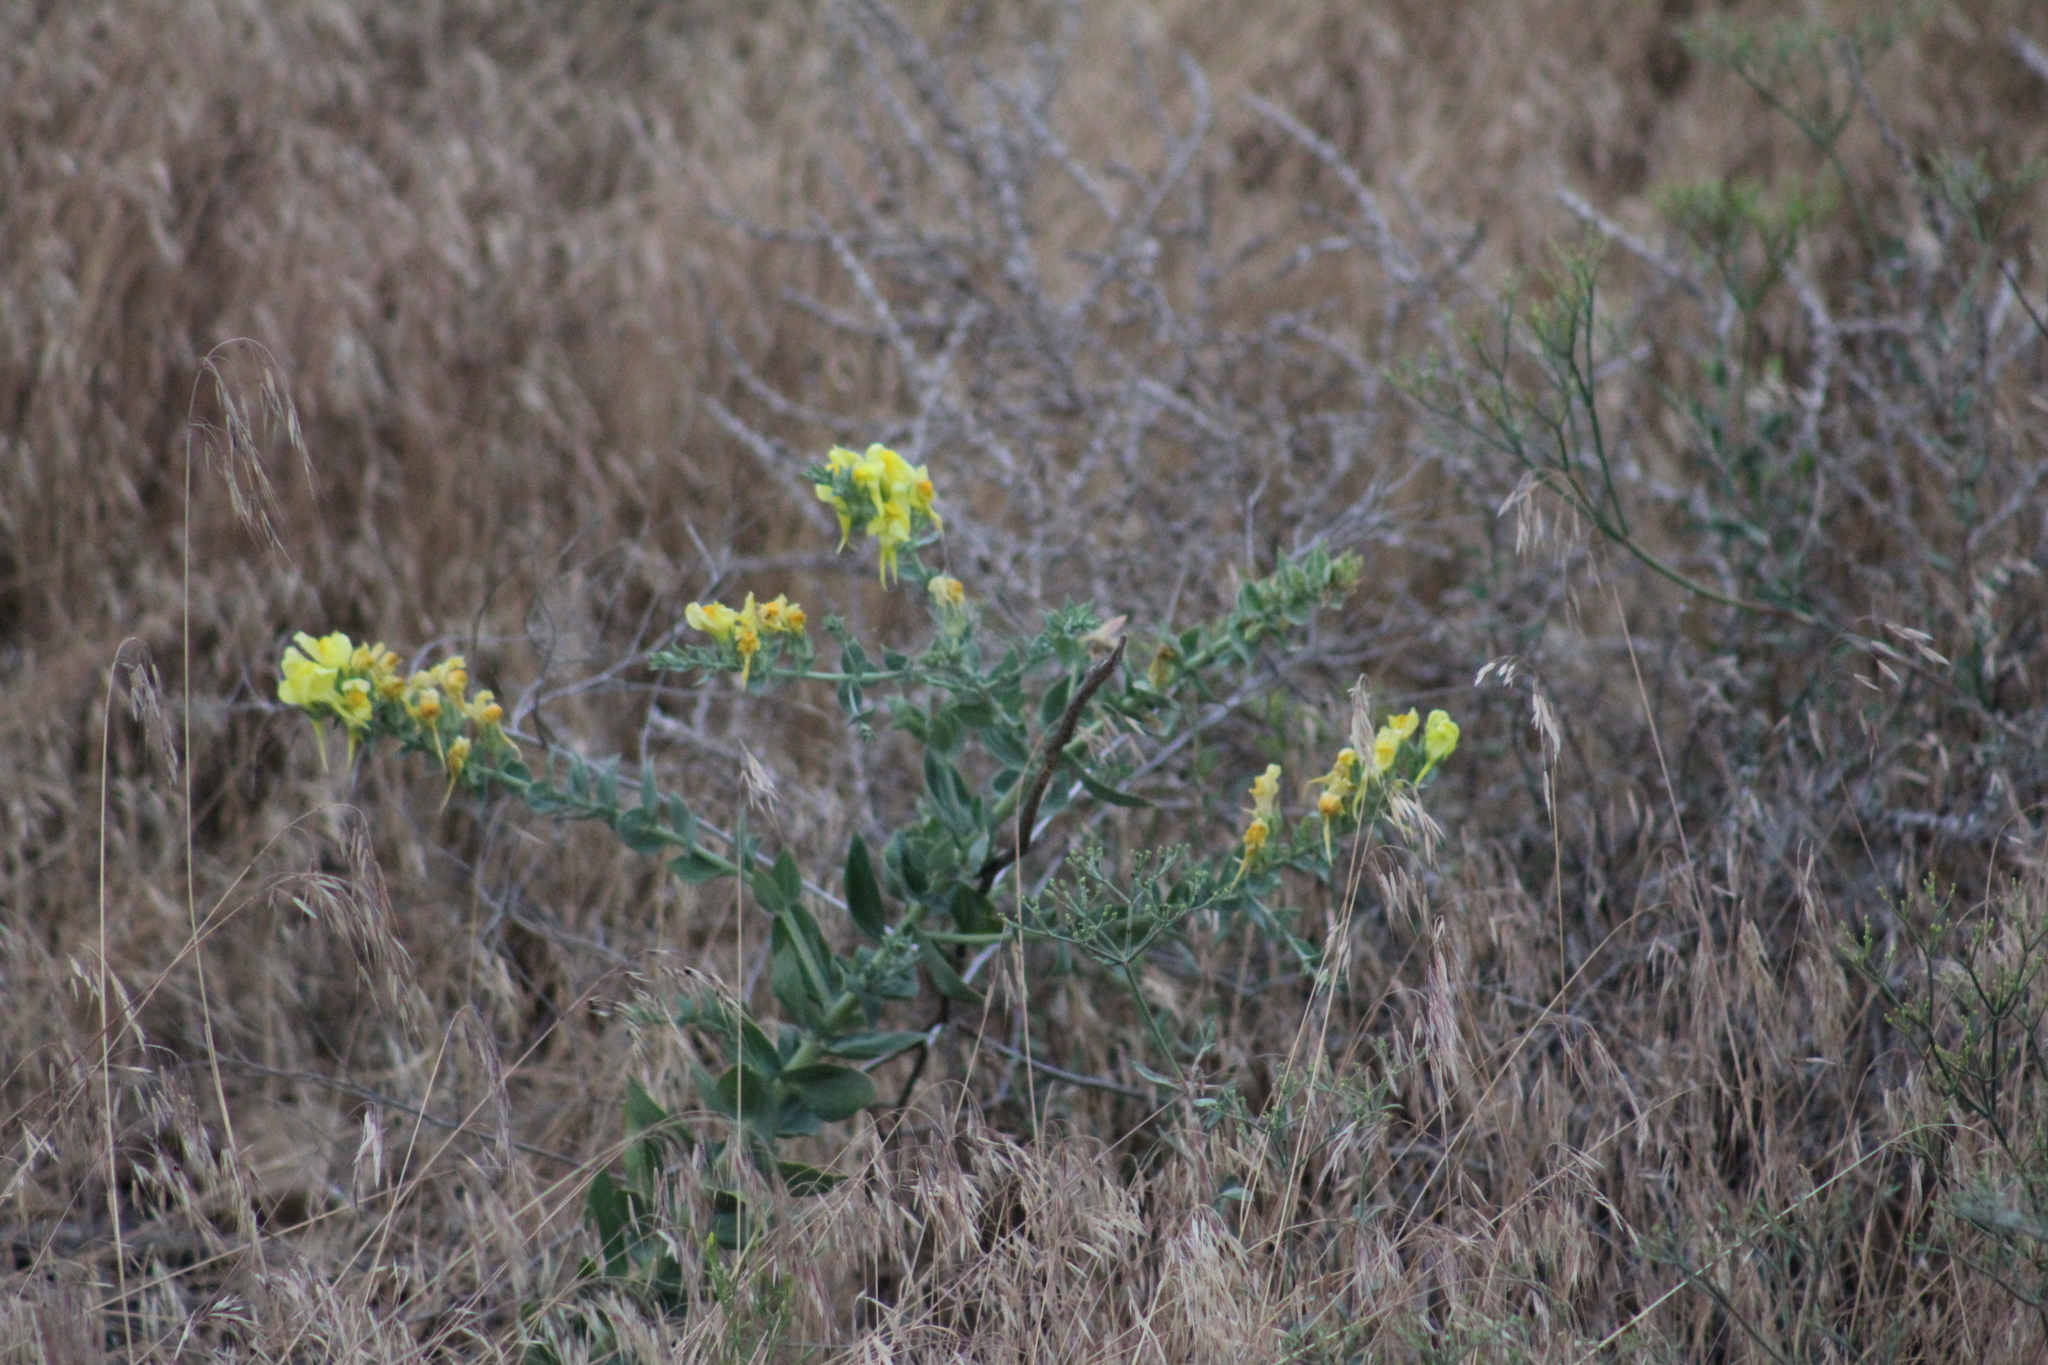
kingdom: Plantae
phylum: Tracheophyta
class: Magnoliopsida
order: Lamiales
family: Plantaginaceae
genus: Linaria
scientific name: Linaria grandiflora
